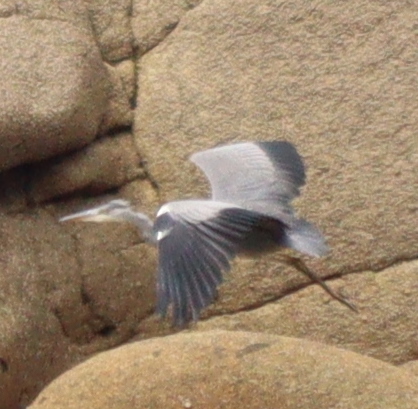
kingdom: Animalia
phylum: Chordata
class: Aves
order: Pelecaniformes
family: Ardeidae
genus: Ardea
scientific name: Ardea cinerea
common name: Grey heron
